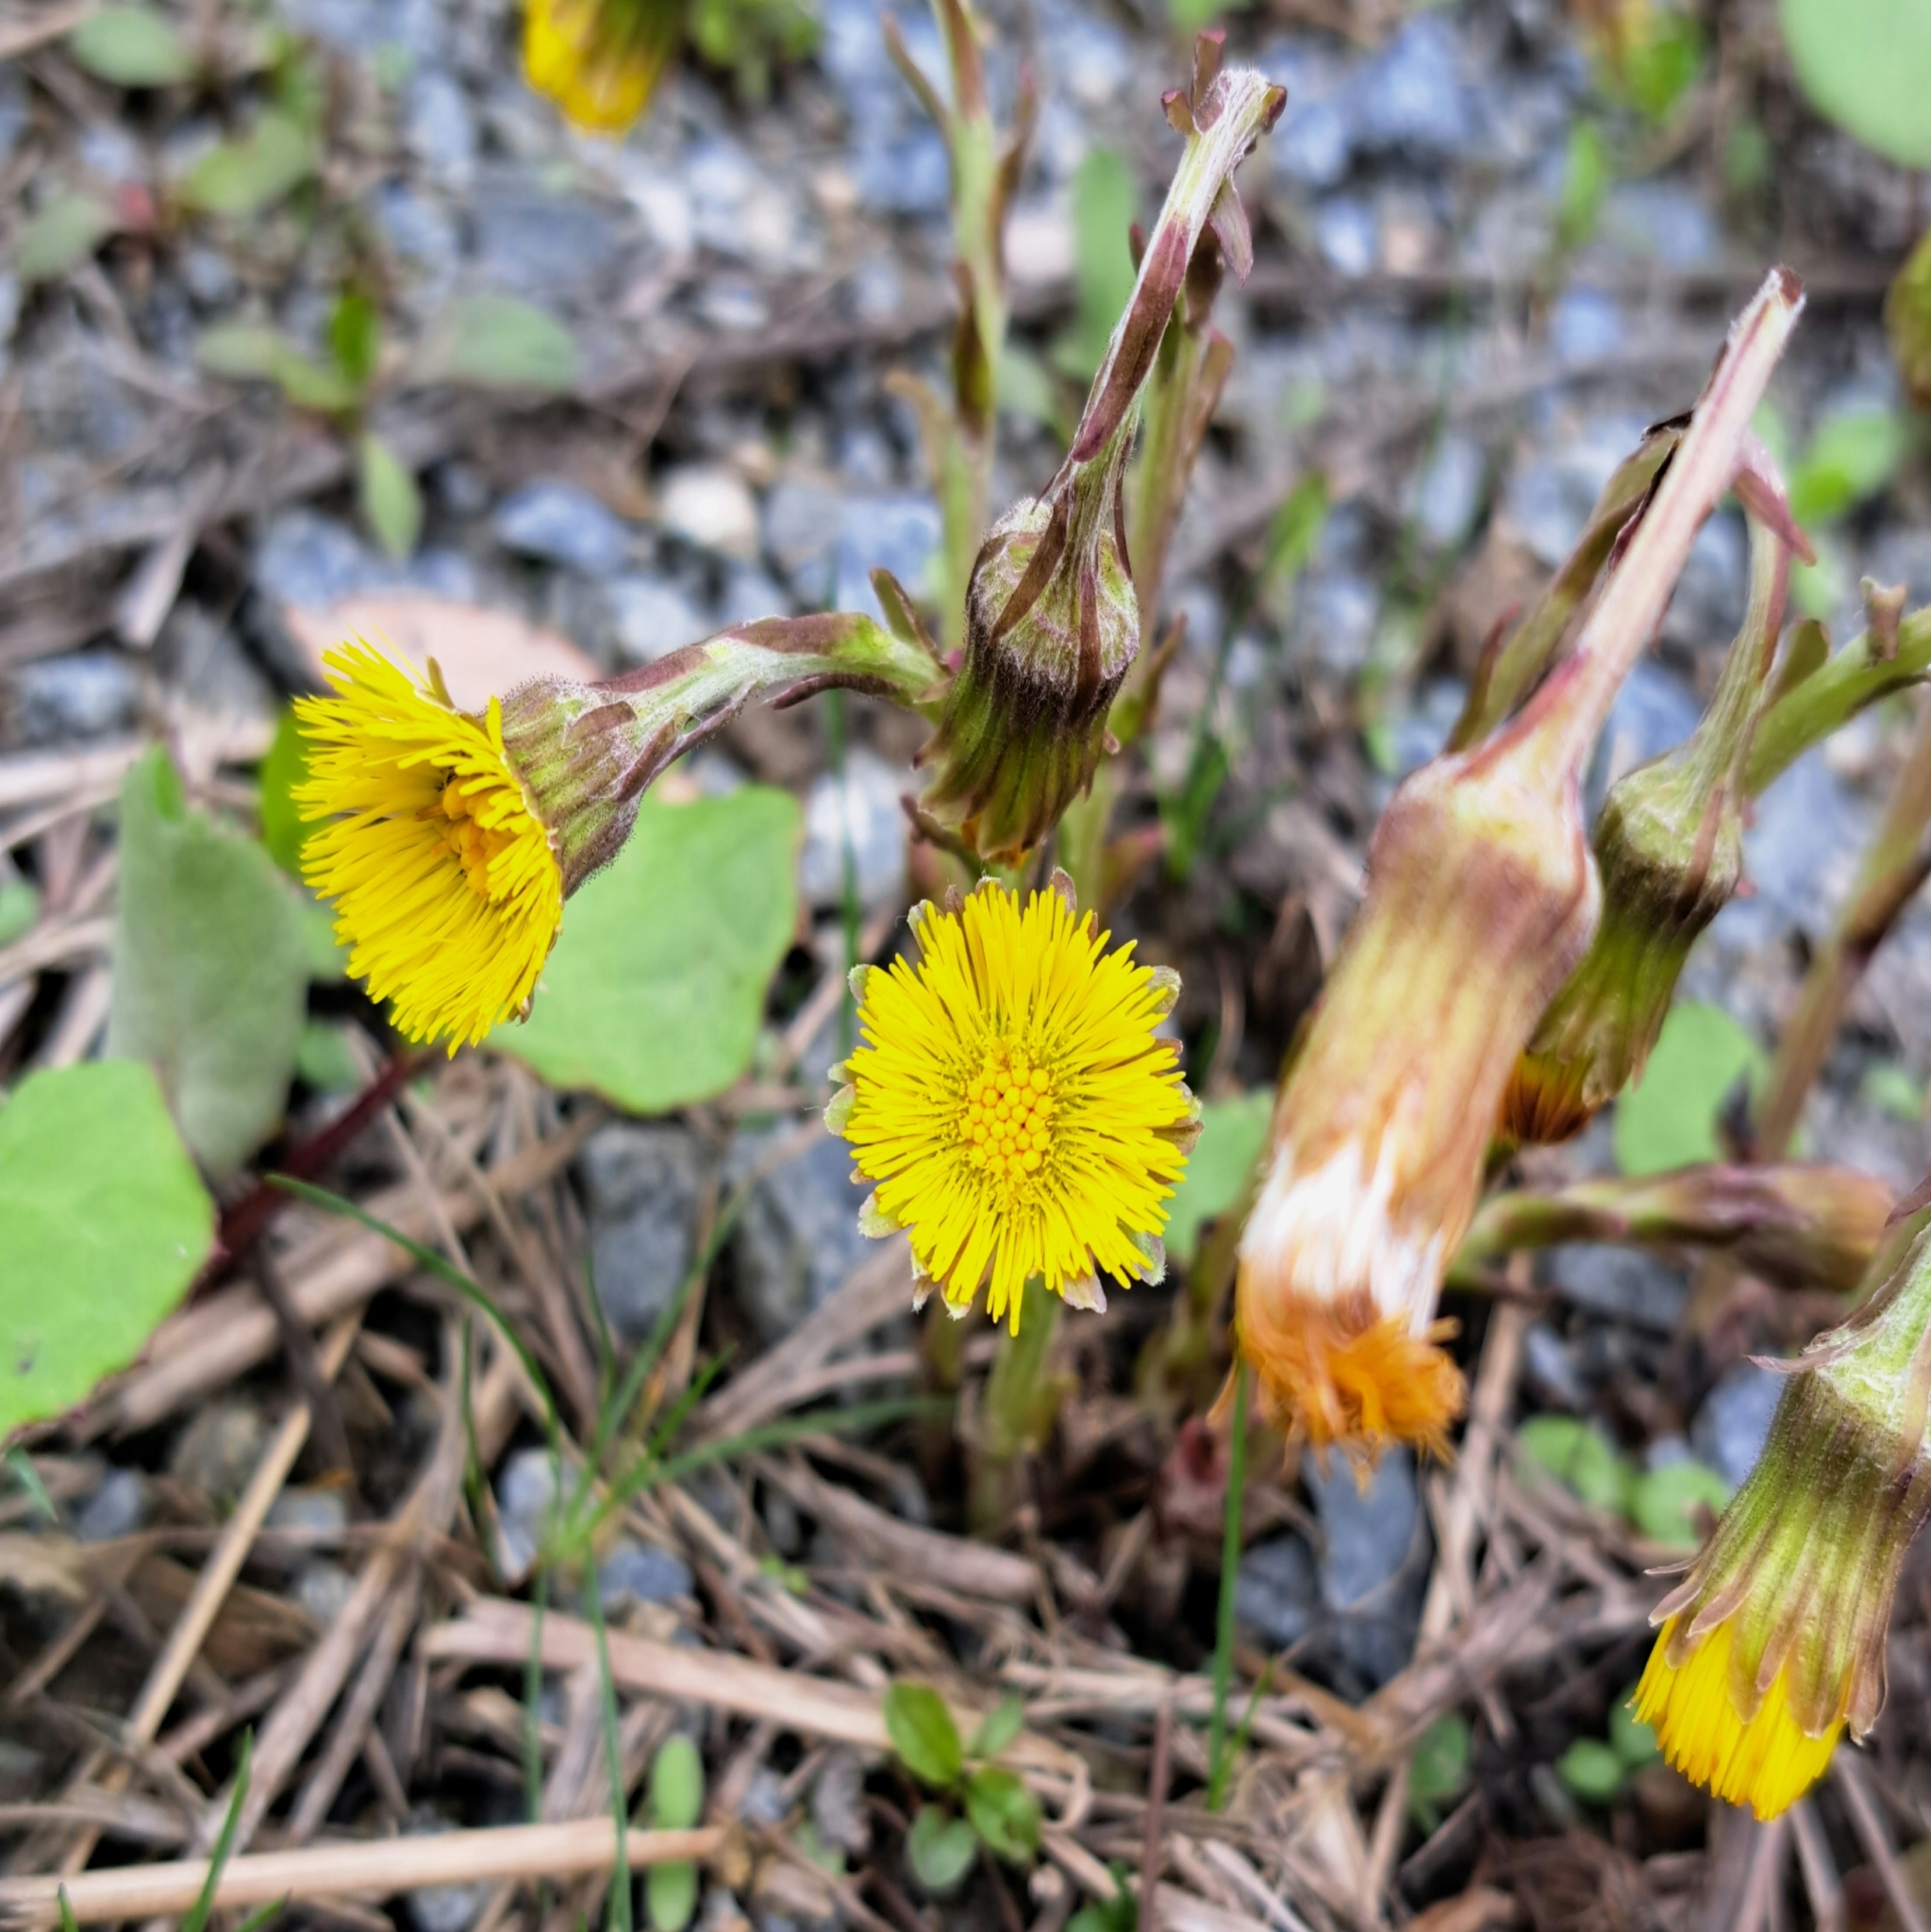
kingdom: Plantae
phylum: Tracheophyta
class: Magnoliopsida
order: Asterales
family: Asteraceae
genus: Tussilago
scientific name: Tussilago farfara
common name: Coltsfoot
